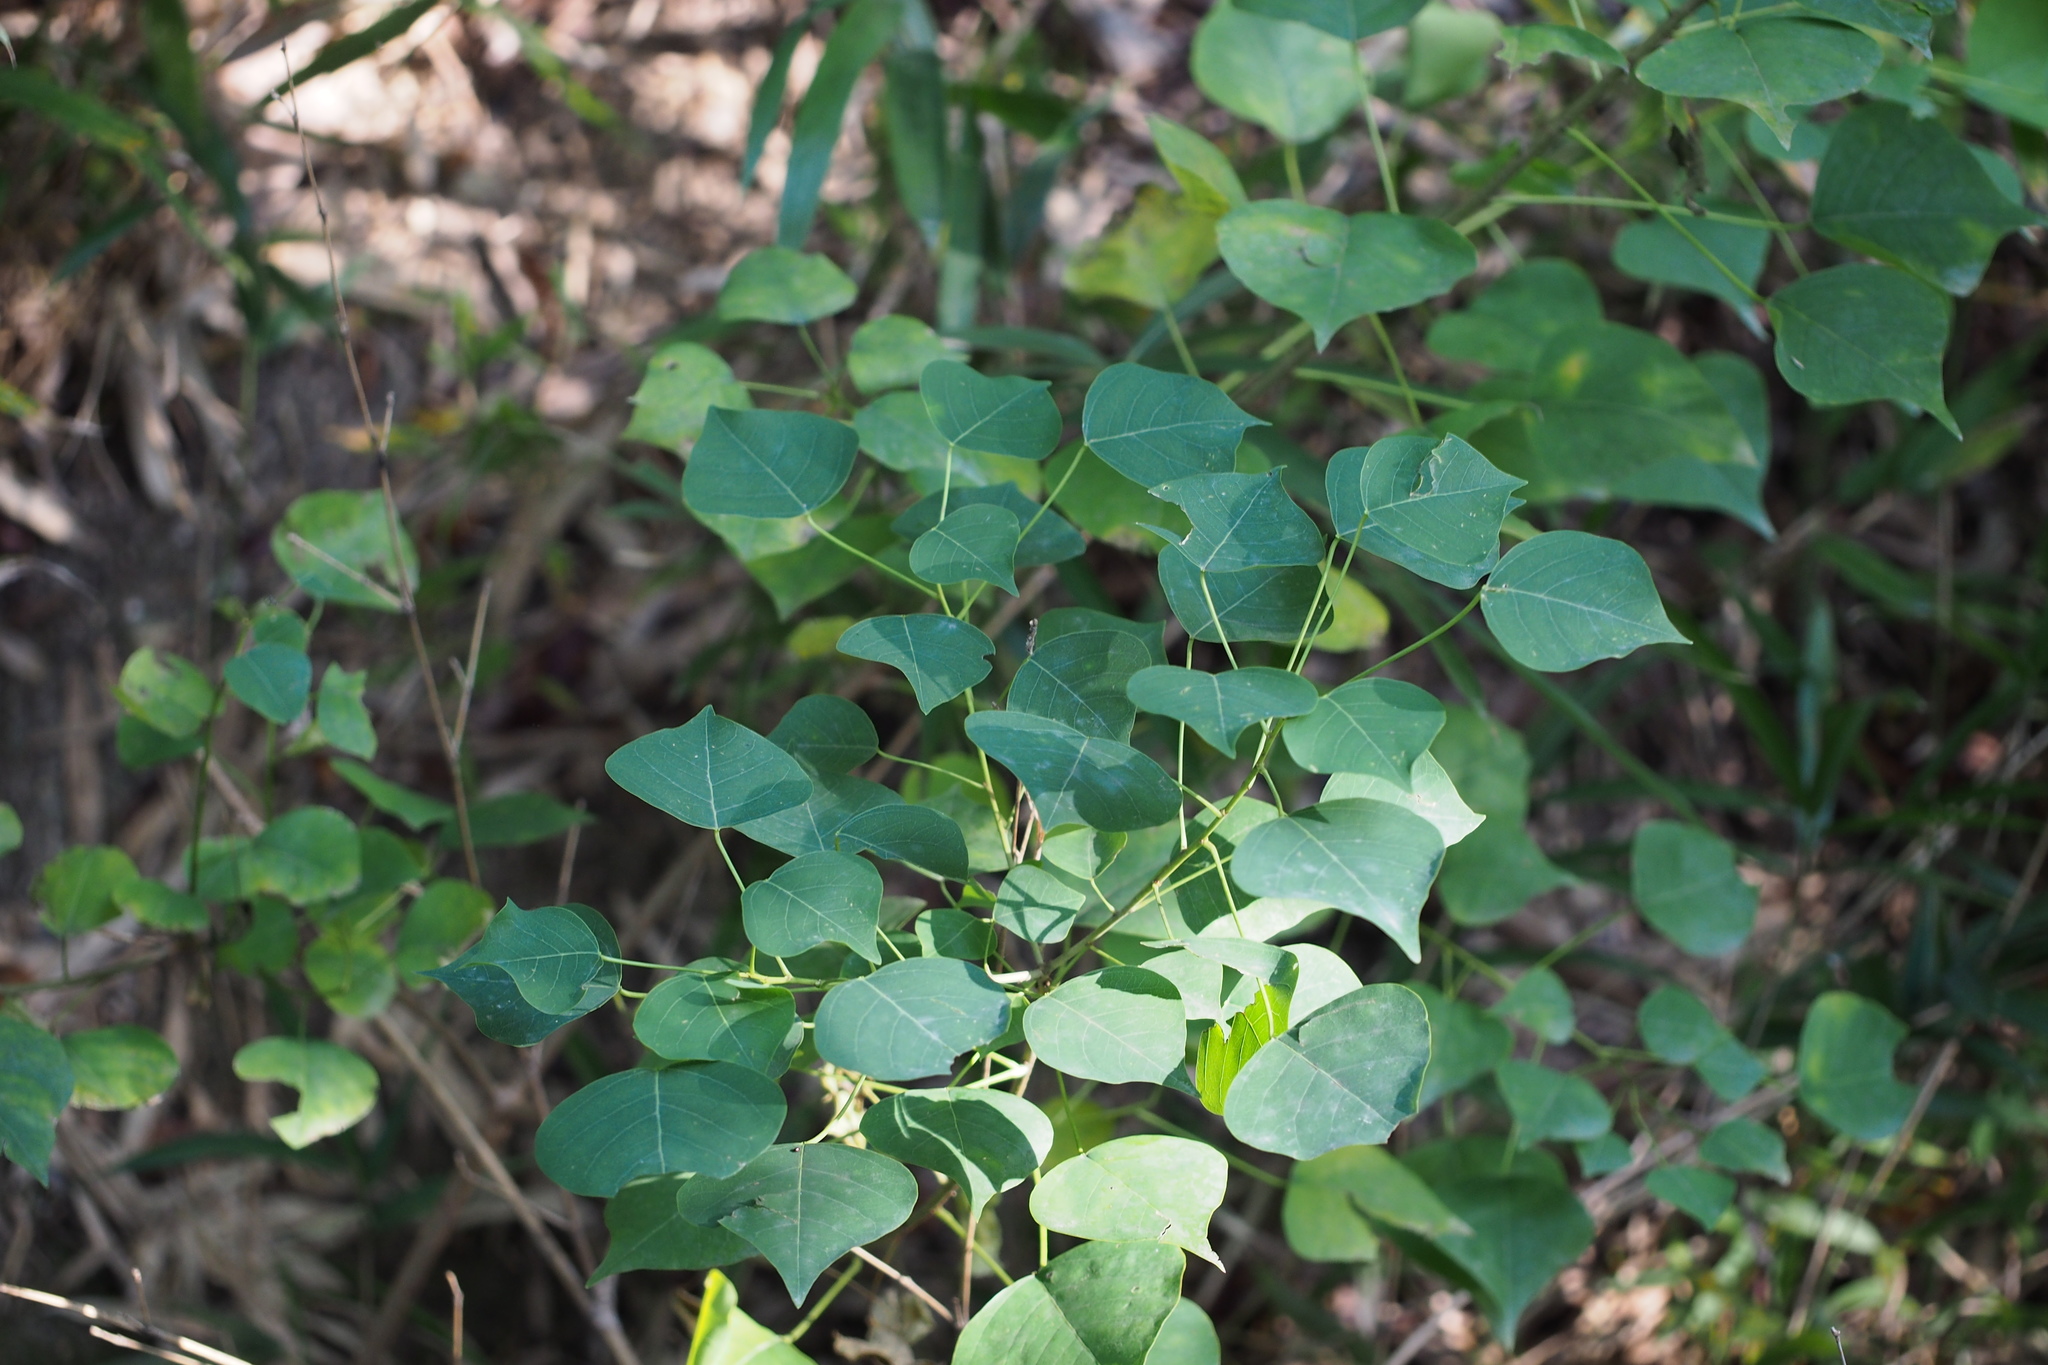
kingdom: Plantae
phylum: Tracheophyta
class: Magnoliopsida
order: Malpighiales
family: Euphorbiaceae
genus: Triadica
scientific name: Triadica sebifera
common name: Chinese tallow
